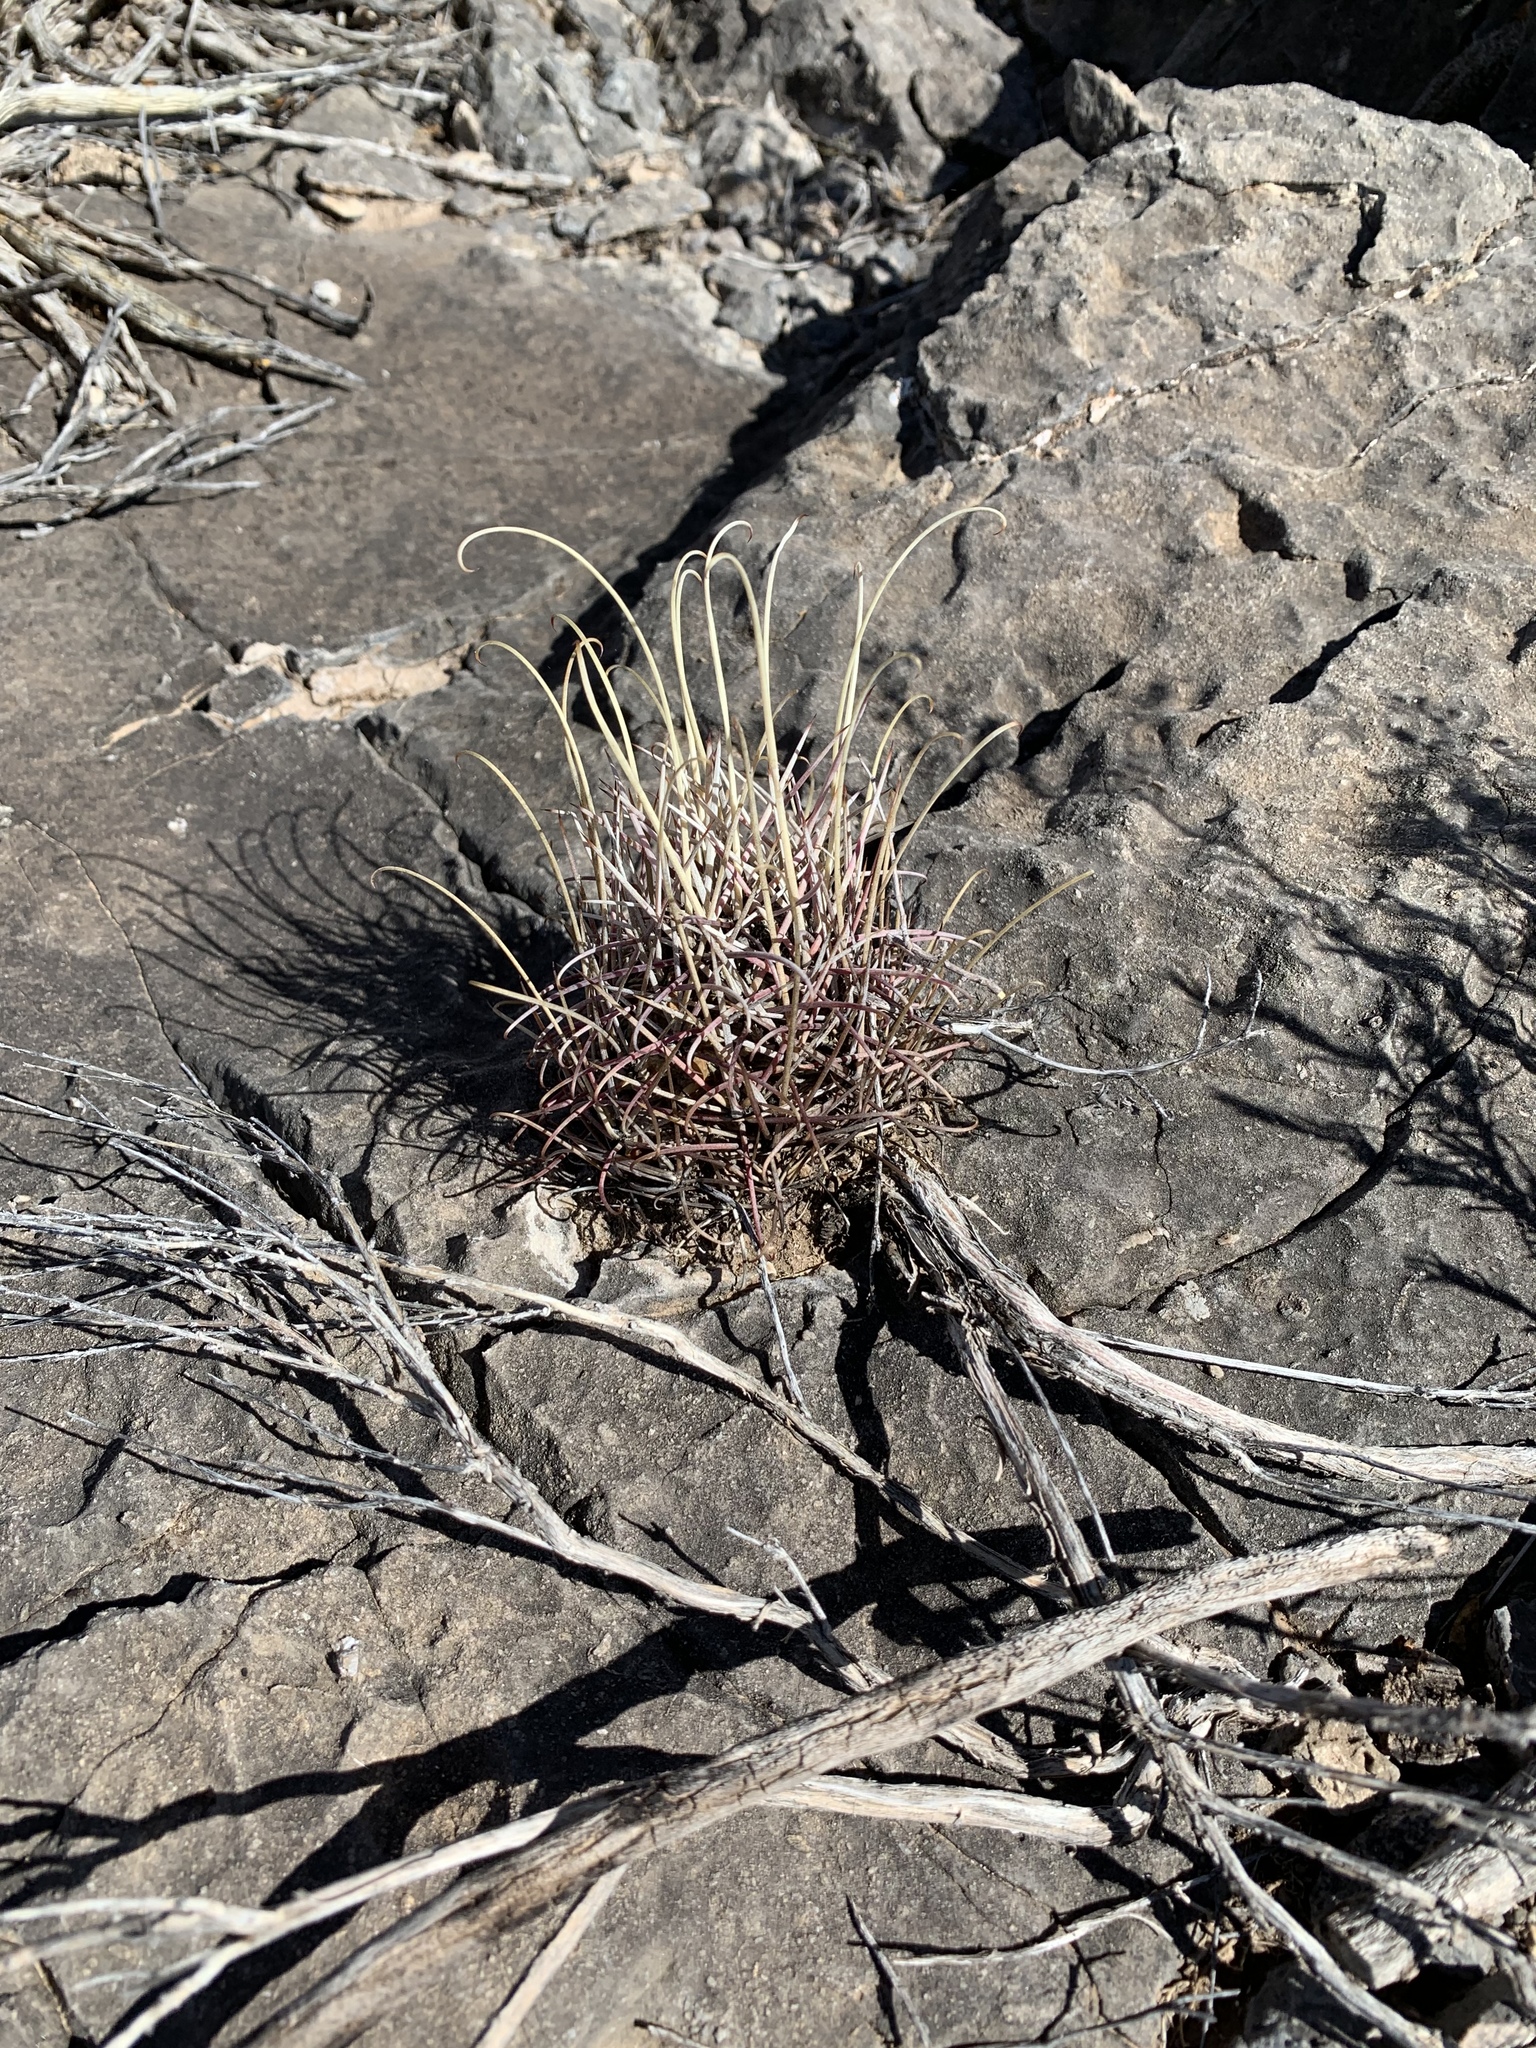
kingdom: Plantae
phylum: Tracheophyta
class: Magnoliopsida
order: Caryophyllales
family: Cactaceae
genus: Ferocactus
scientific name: Ferocactus uncinatus
